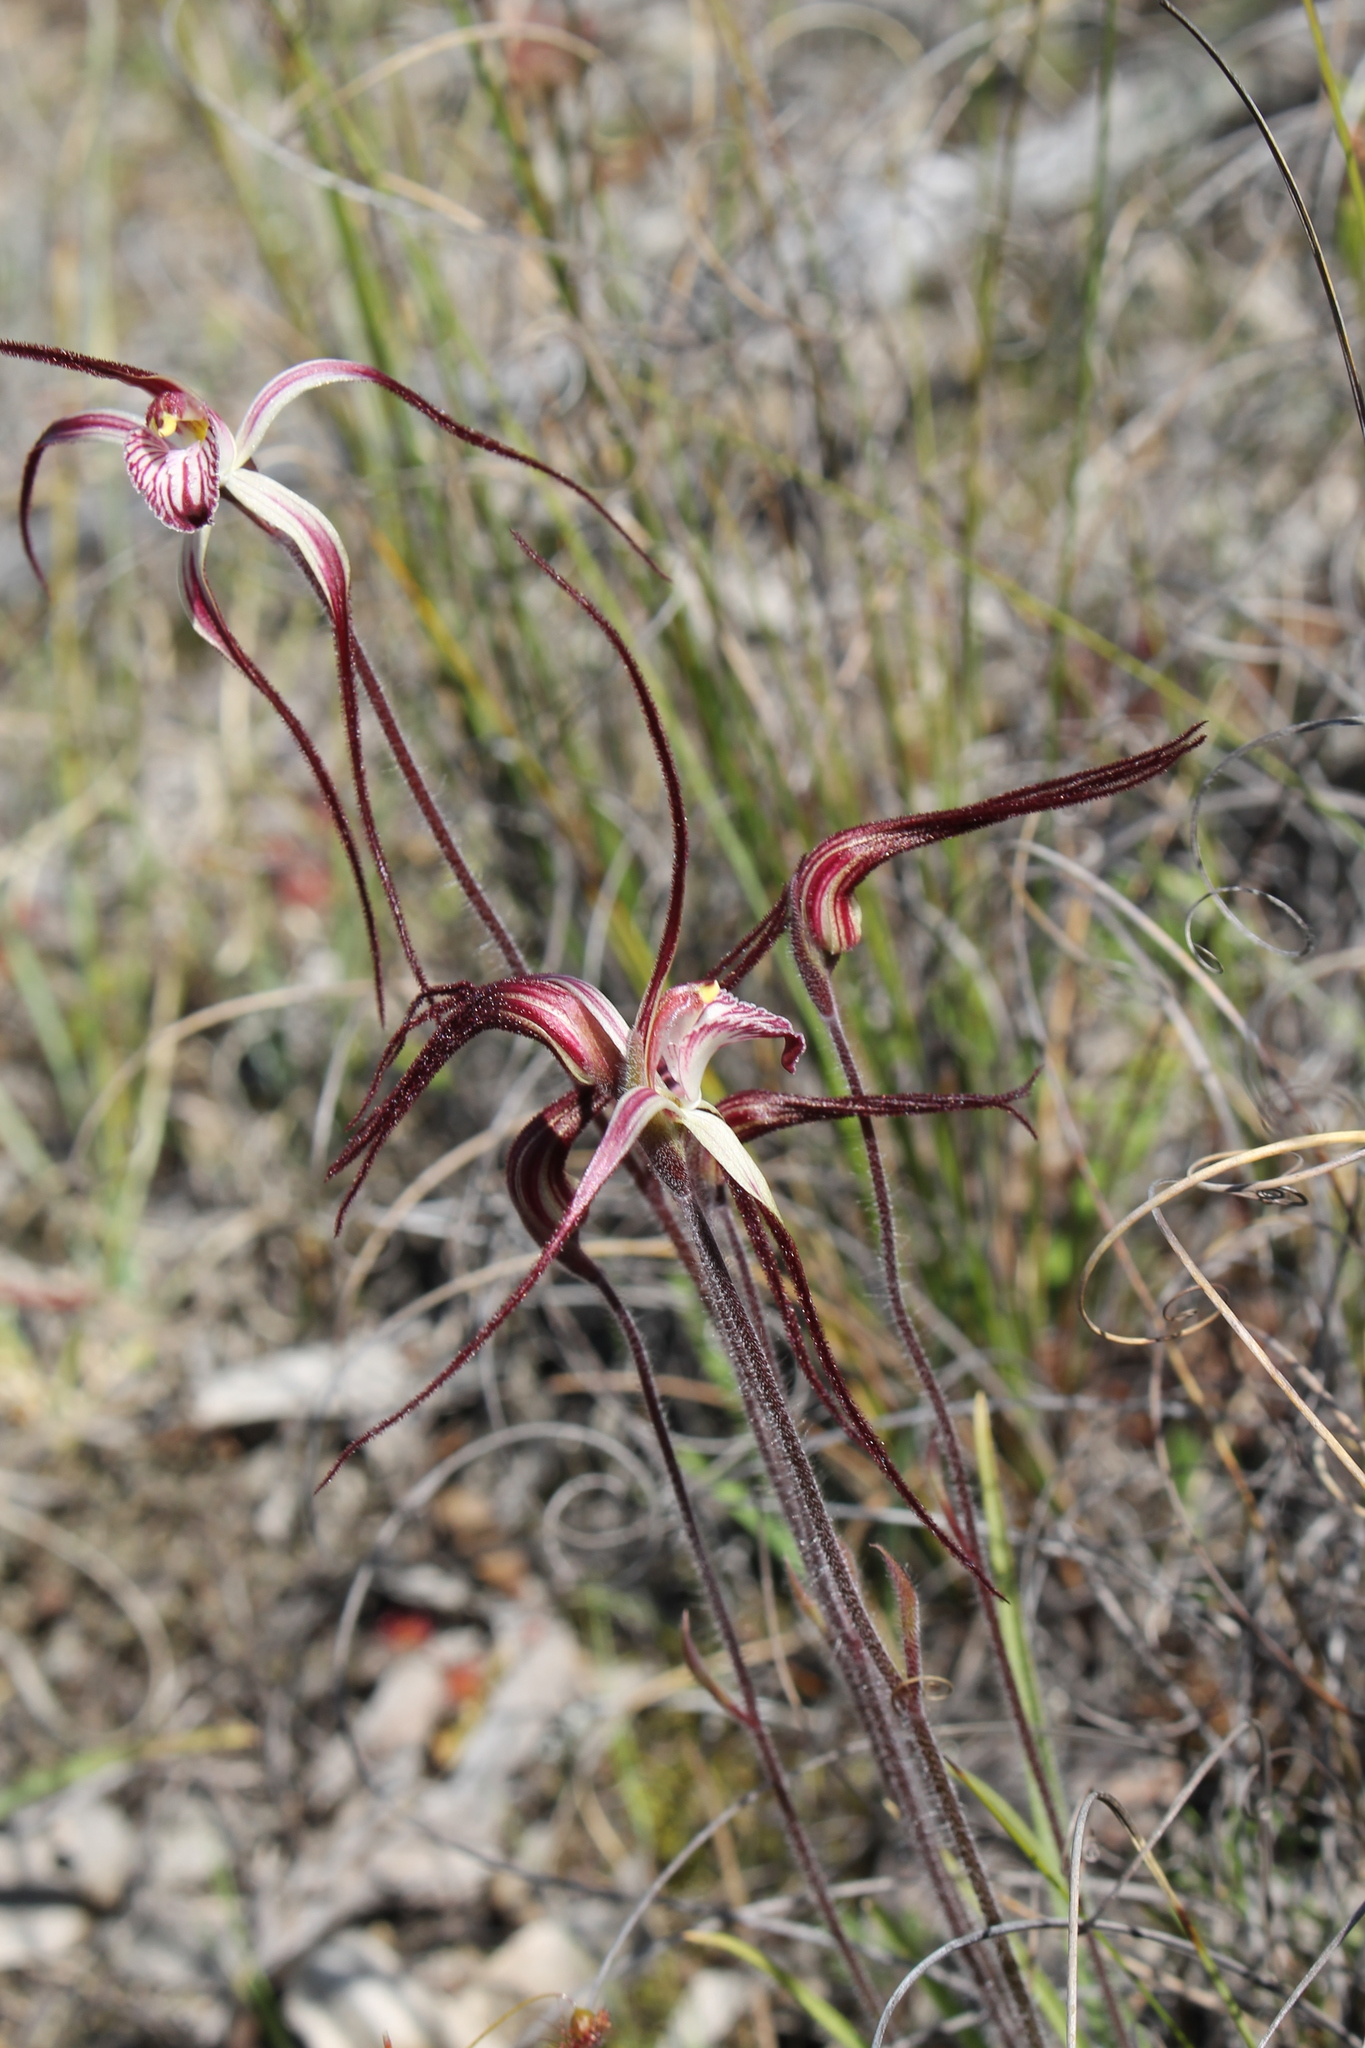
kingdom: Plantae
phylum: Tracheophyta
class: Liliopsida
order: Asparagales
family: Orchidaceae
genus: Caladenia
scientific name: Caladenia polychroma
